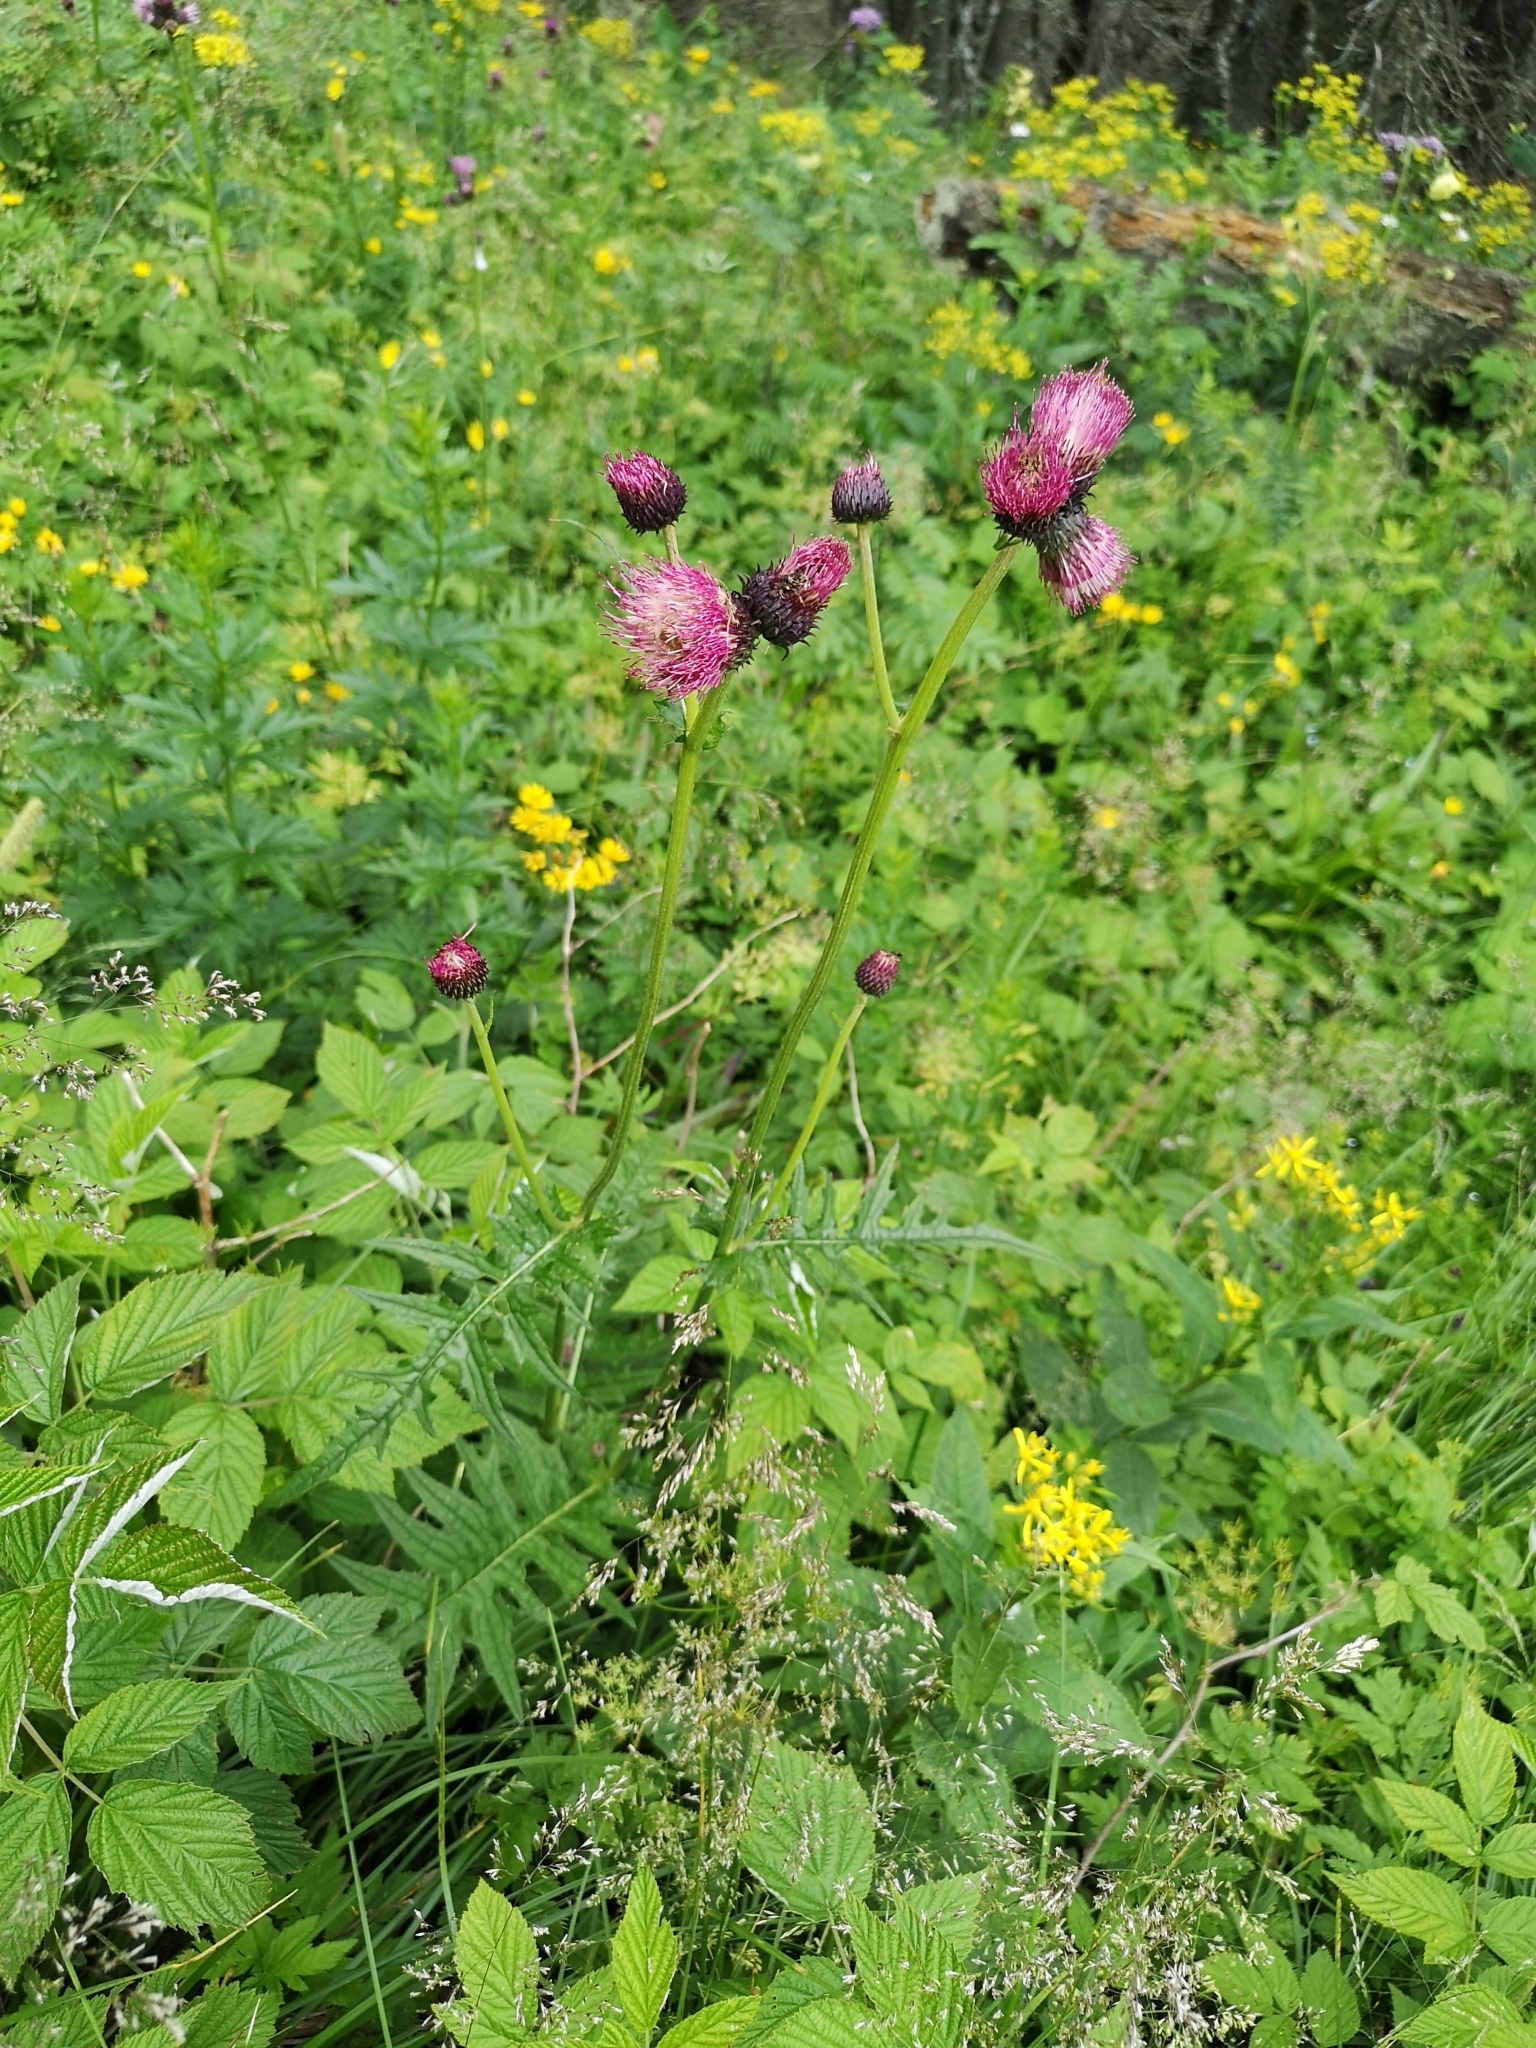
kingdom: Plantae
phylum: Tracheophyta
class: Magnoliopsida
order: Asterales
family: Asteraceae
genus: Cirsium
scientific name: Cirsium rivulare
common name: Brook thistle
